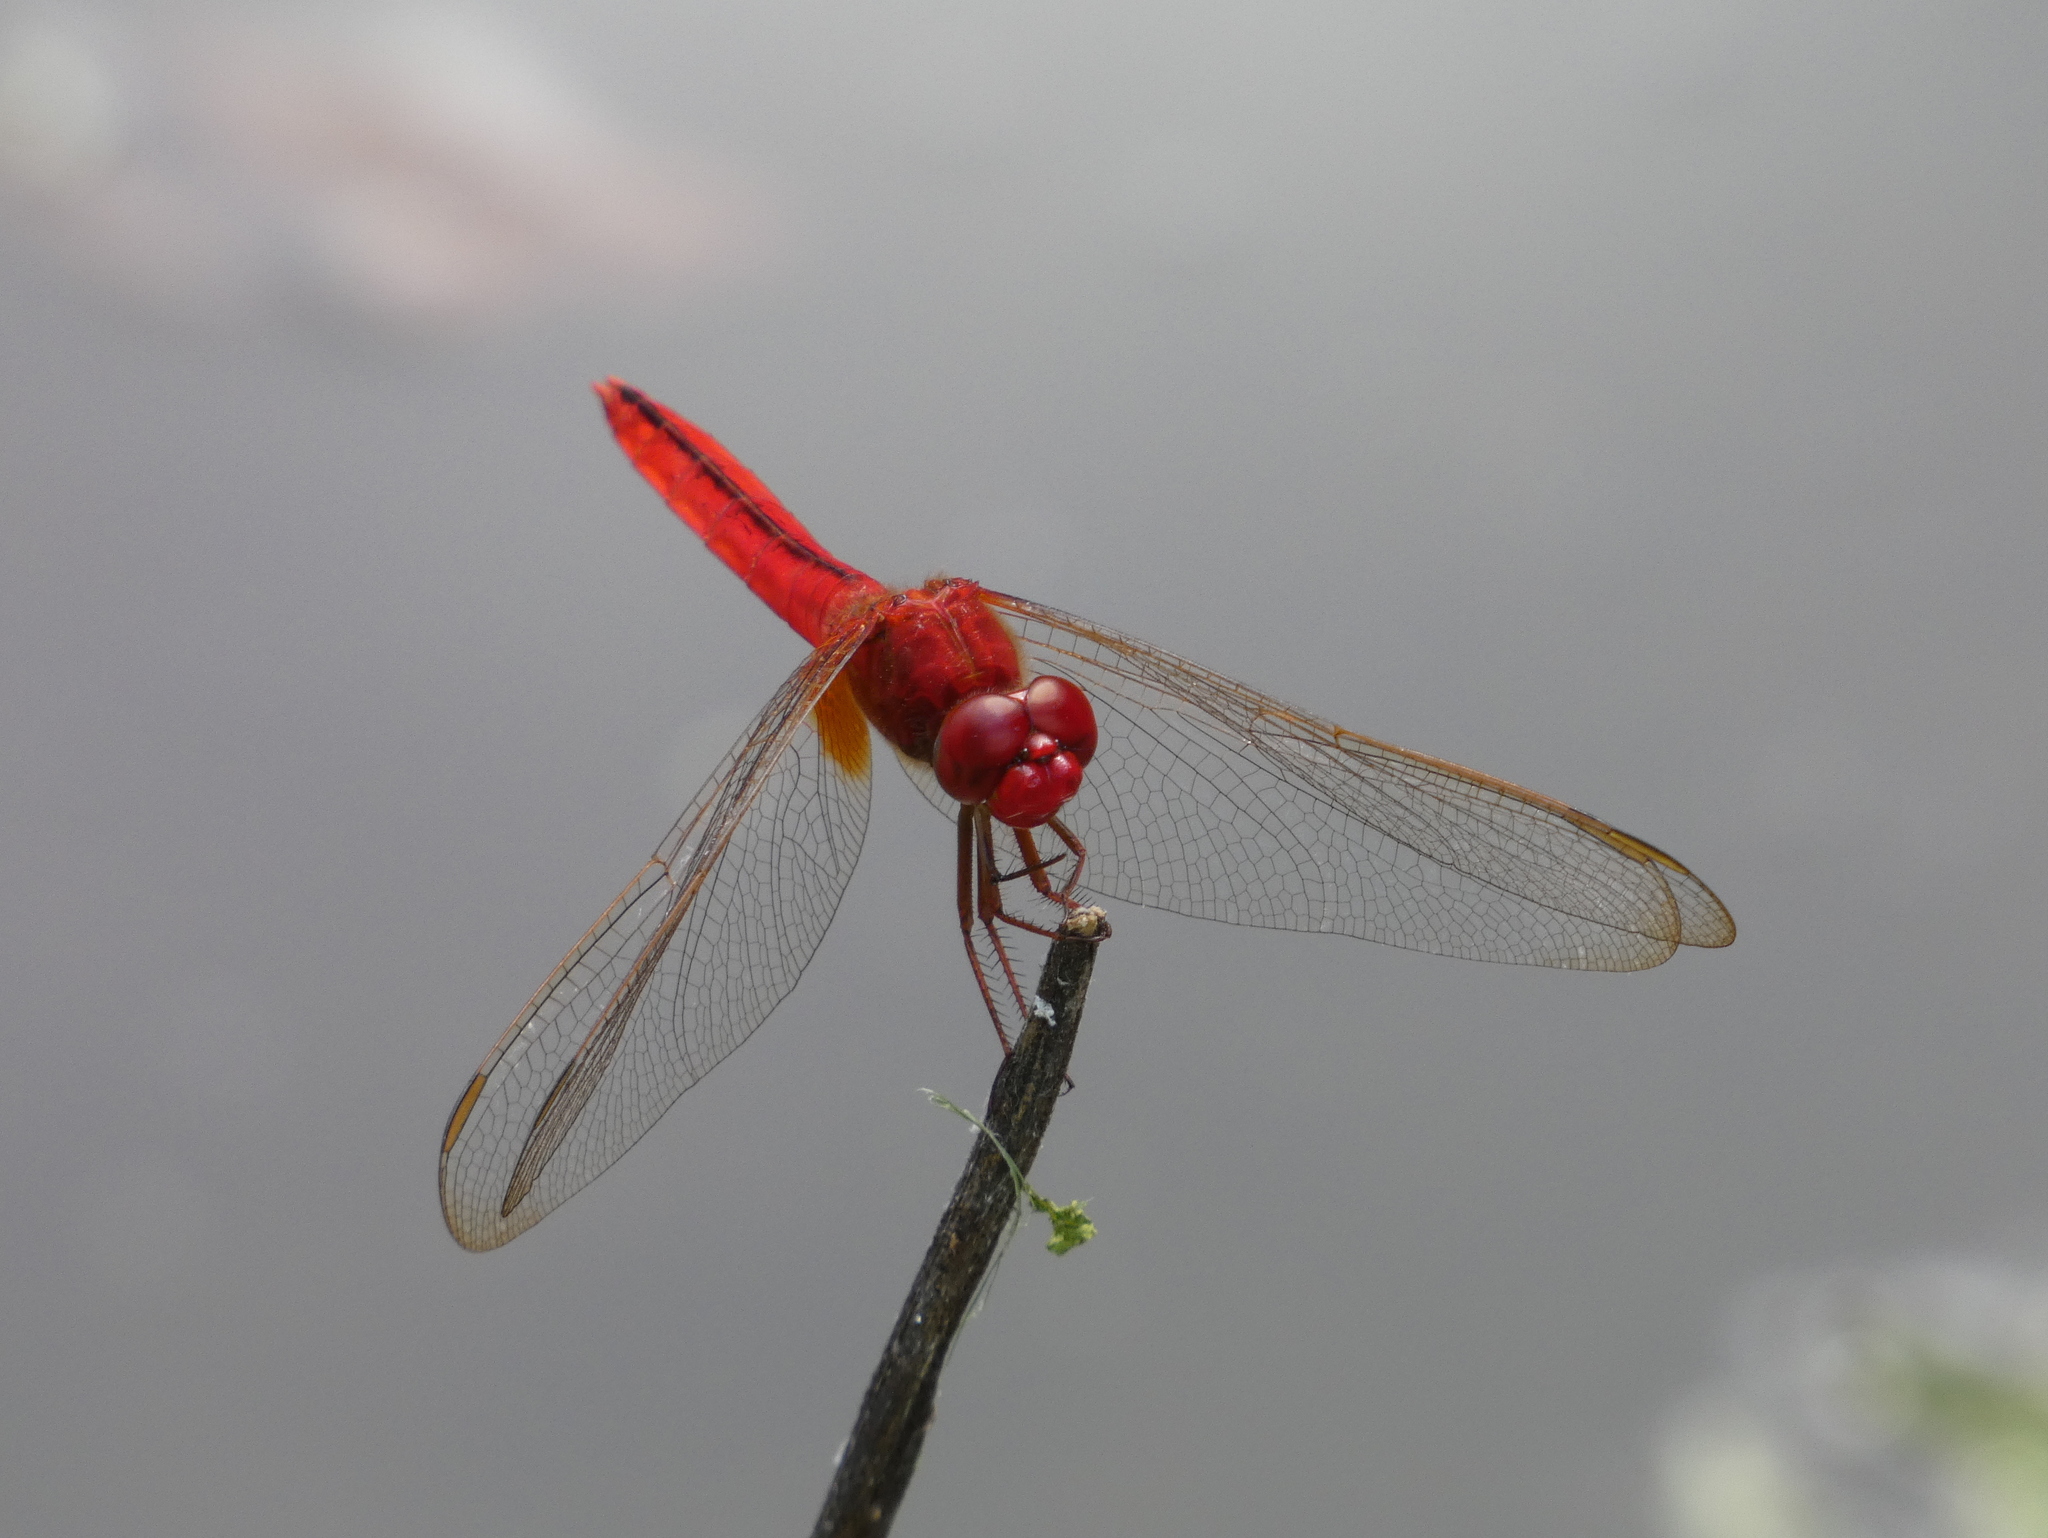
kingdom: Animalia
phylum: Arthropoda
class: Insecta
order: Odonata
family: Libellulidae
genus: Crocothemis
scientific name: Crocothemis servilia
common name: Scarlet skimmer
